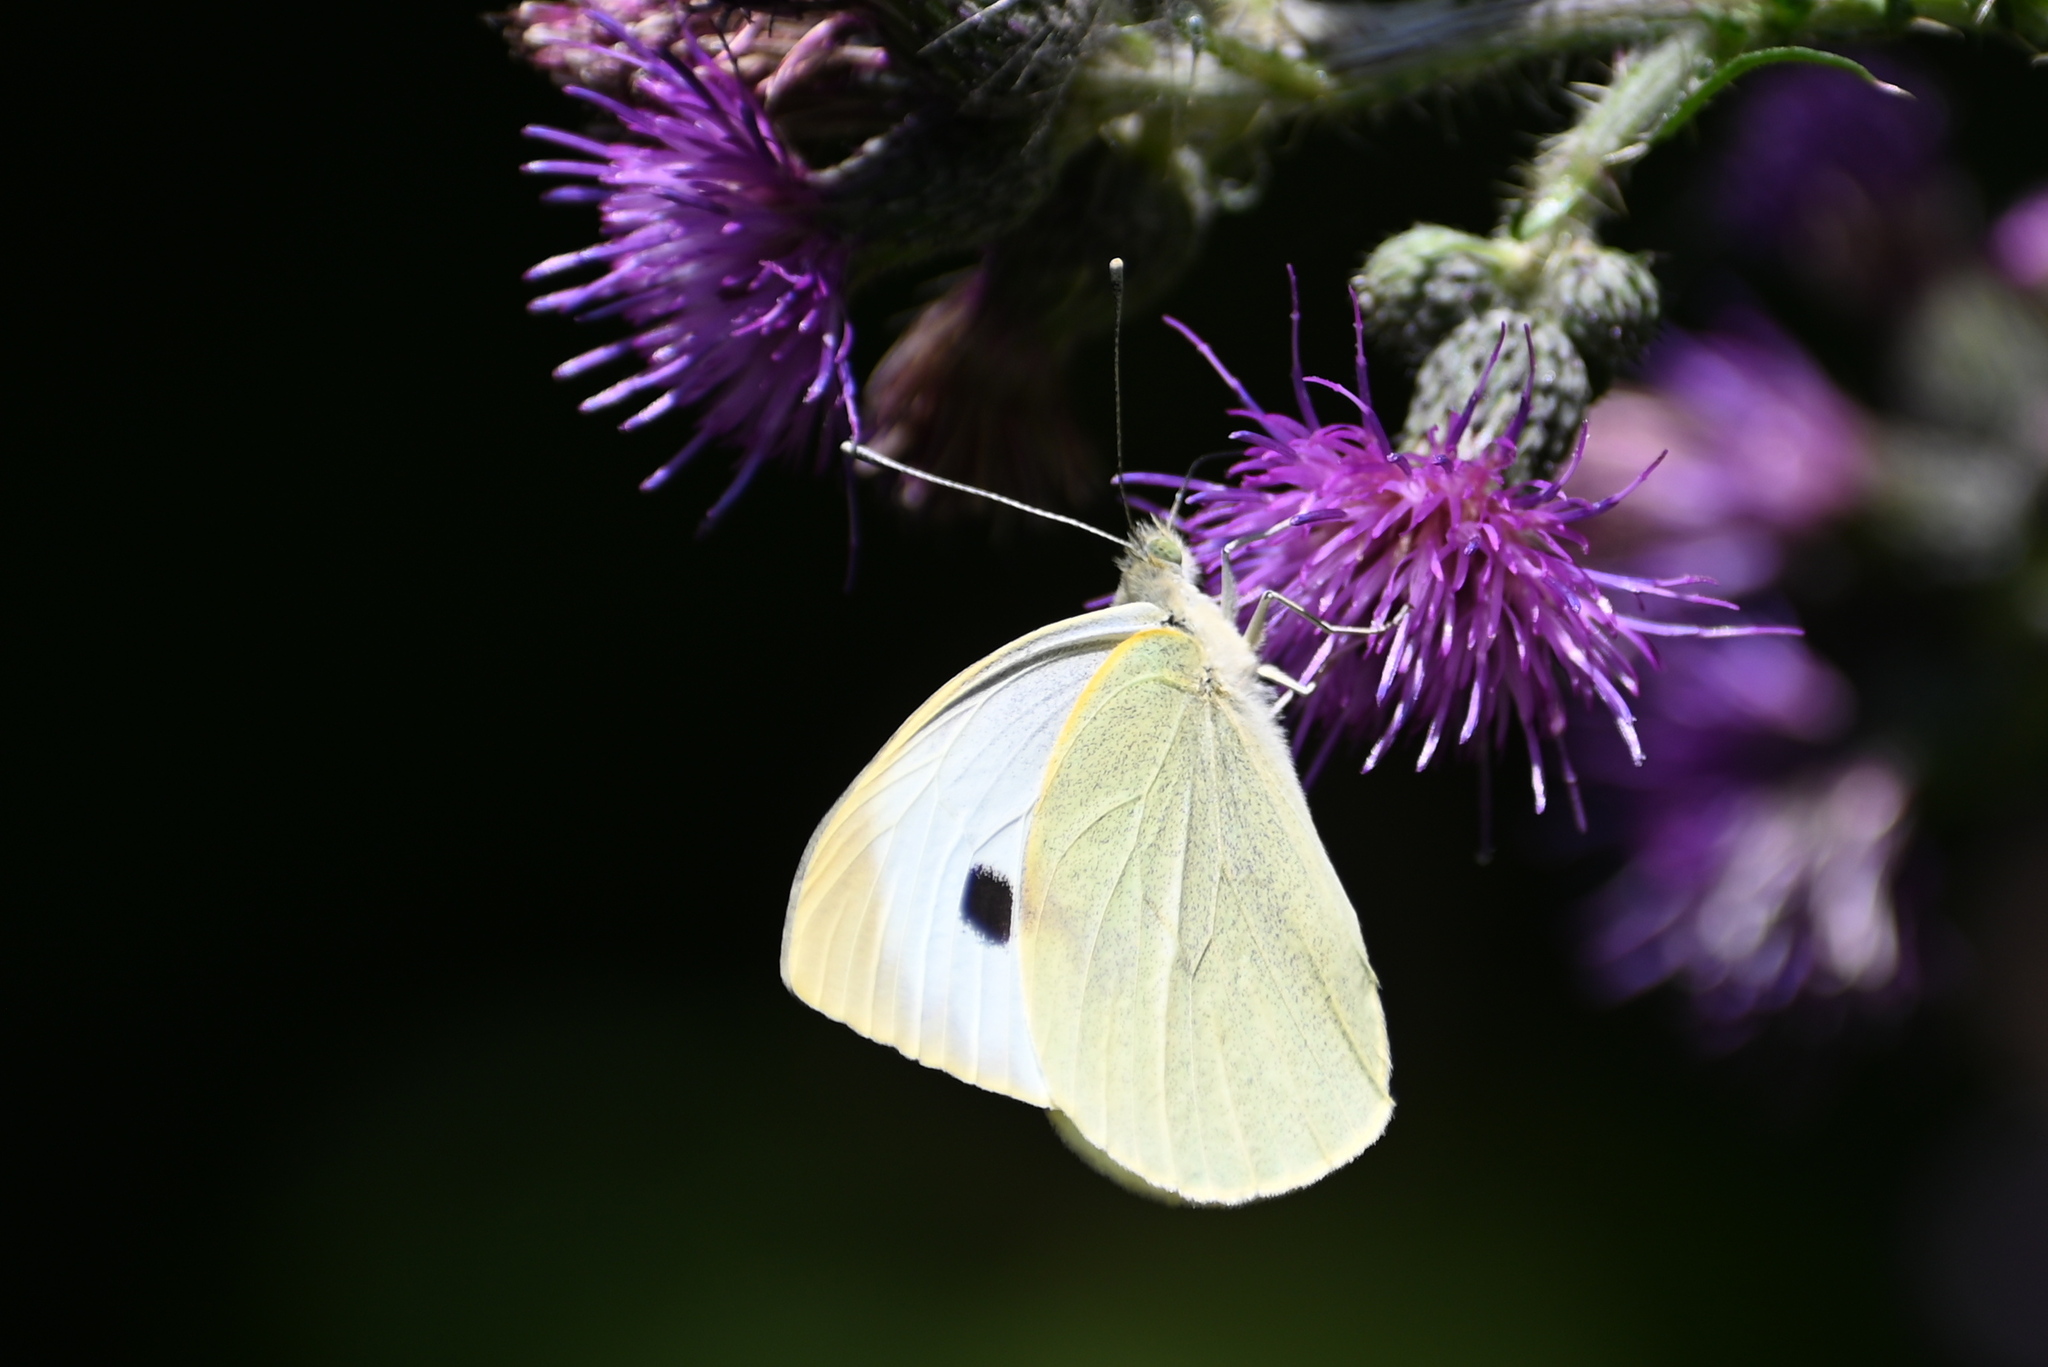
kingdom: Animalia
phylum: Arthropoda
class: Insecta
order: Lepidoptera
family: Pieridae
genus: Pieris
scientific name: Pieris brassicae
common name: Large white
